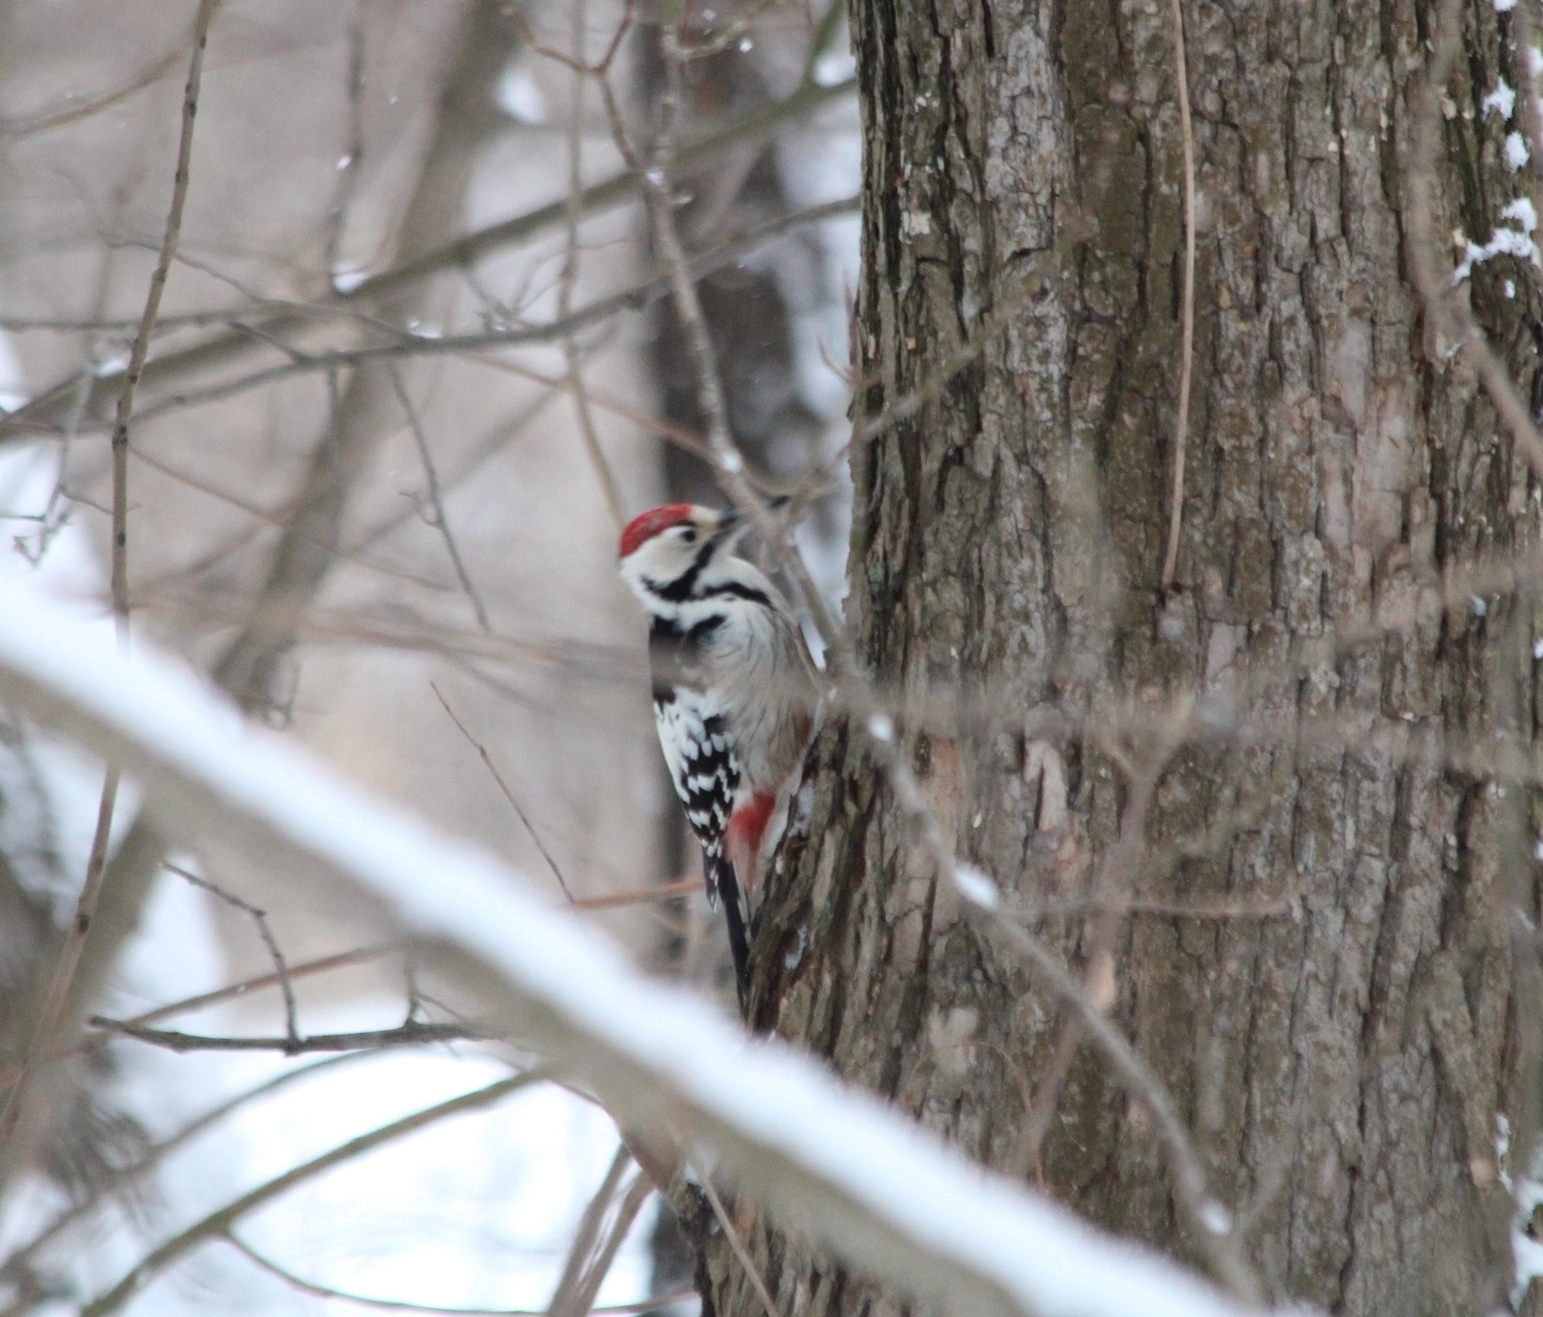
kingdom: Animalia
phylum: Chordata
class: Aves
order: Piciformes
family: Picidae
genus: Dendrocopos
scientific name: Dendrocopos leucotos
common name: White-backed woodpecker
